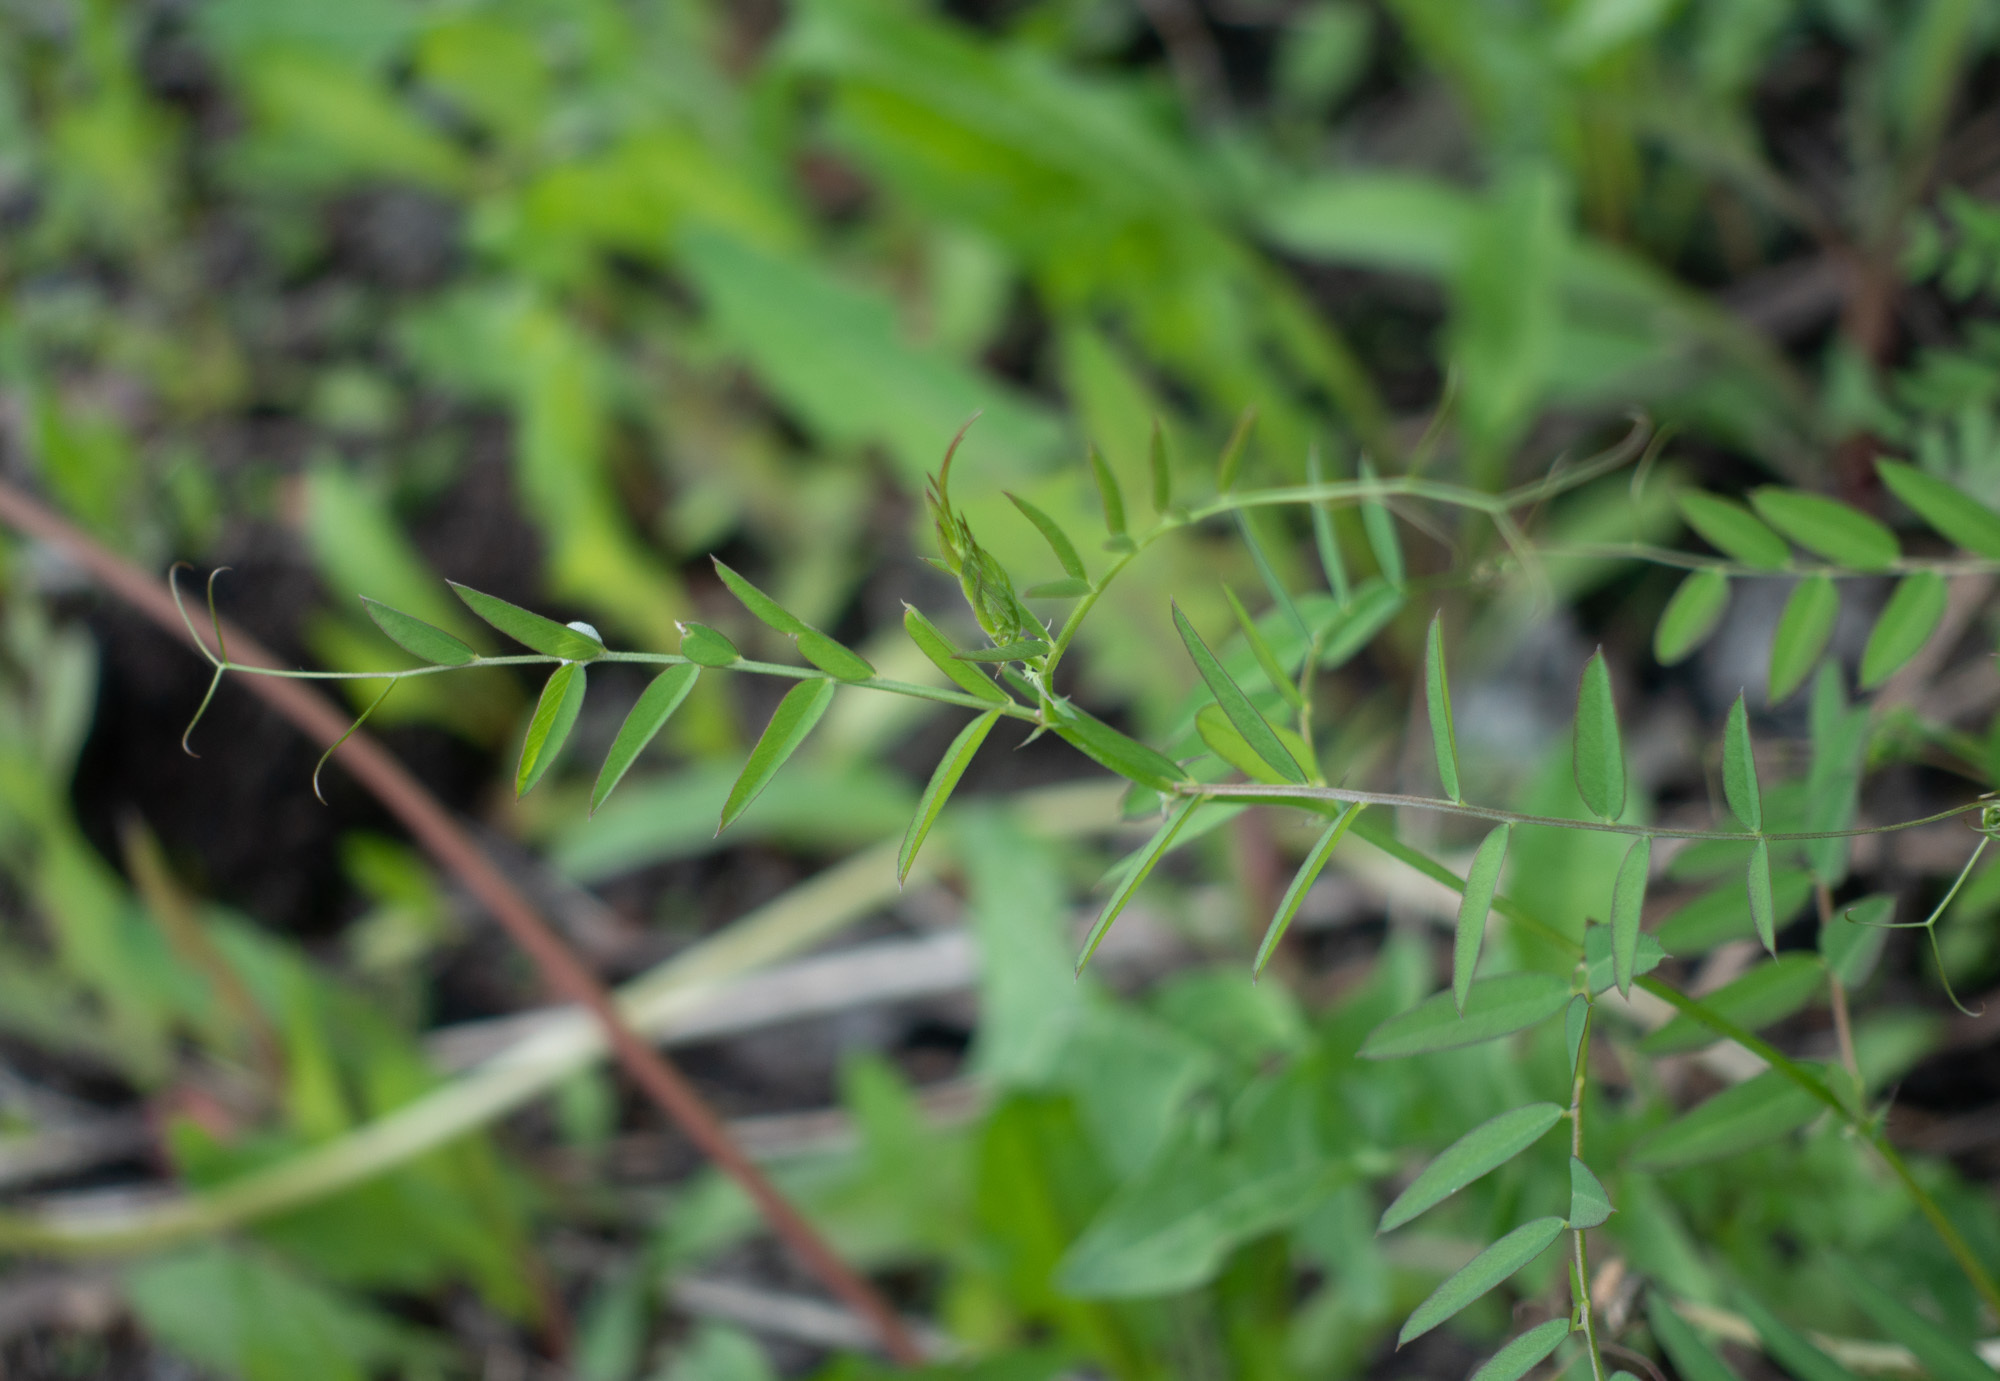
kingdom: Plantae
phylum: Tracheophyta
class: Magnoliopsida
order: Fabales
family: Fabaceae
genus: Vicia
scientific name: Vicia americana
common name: American vetch
